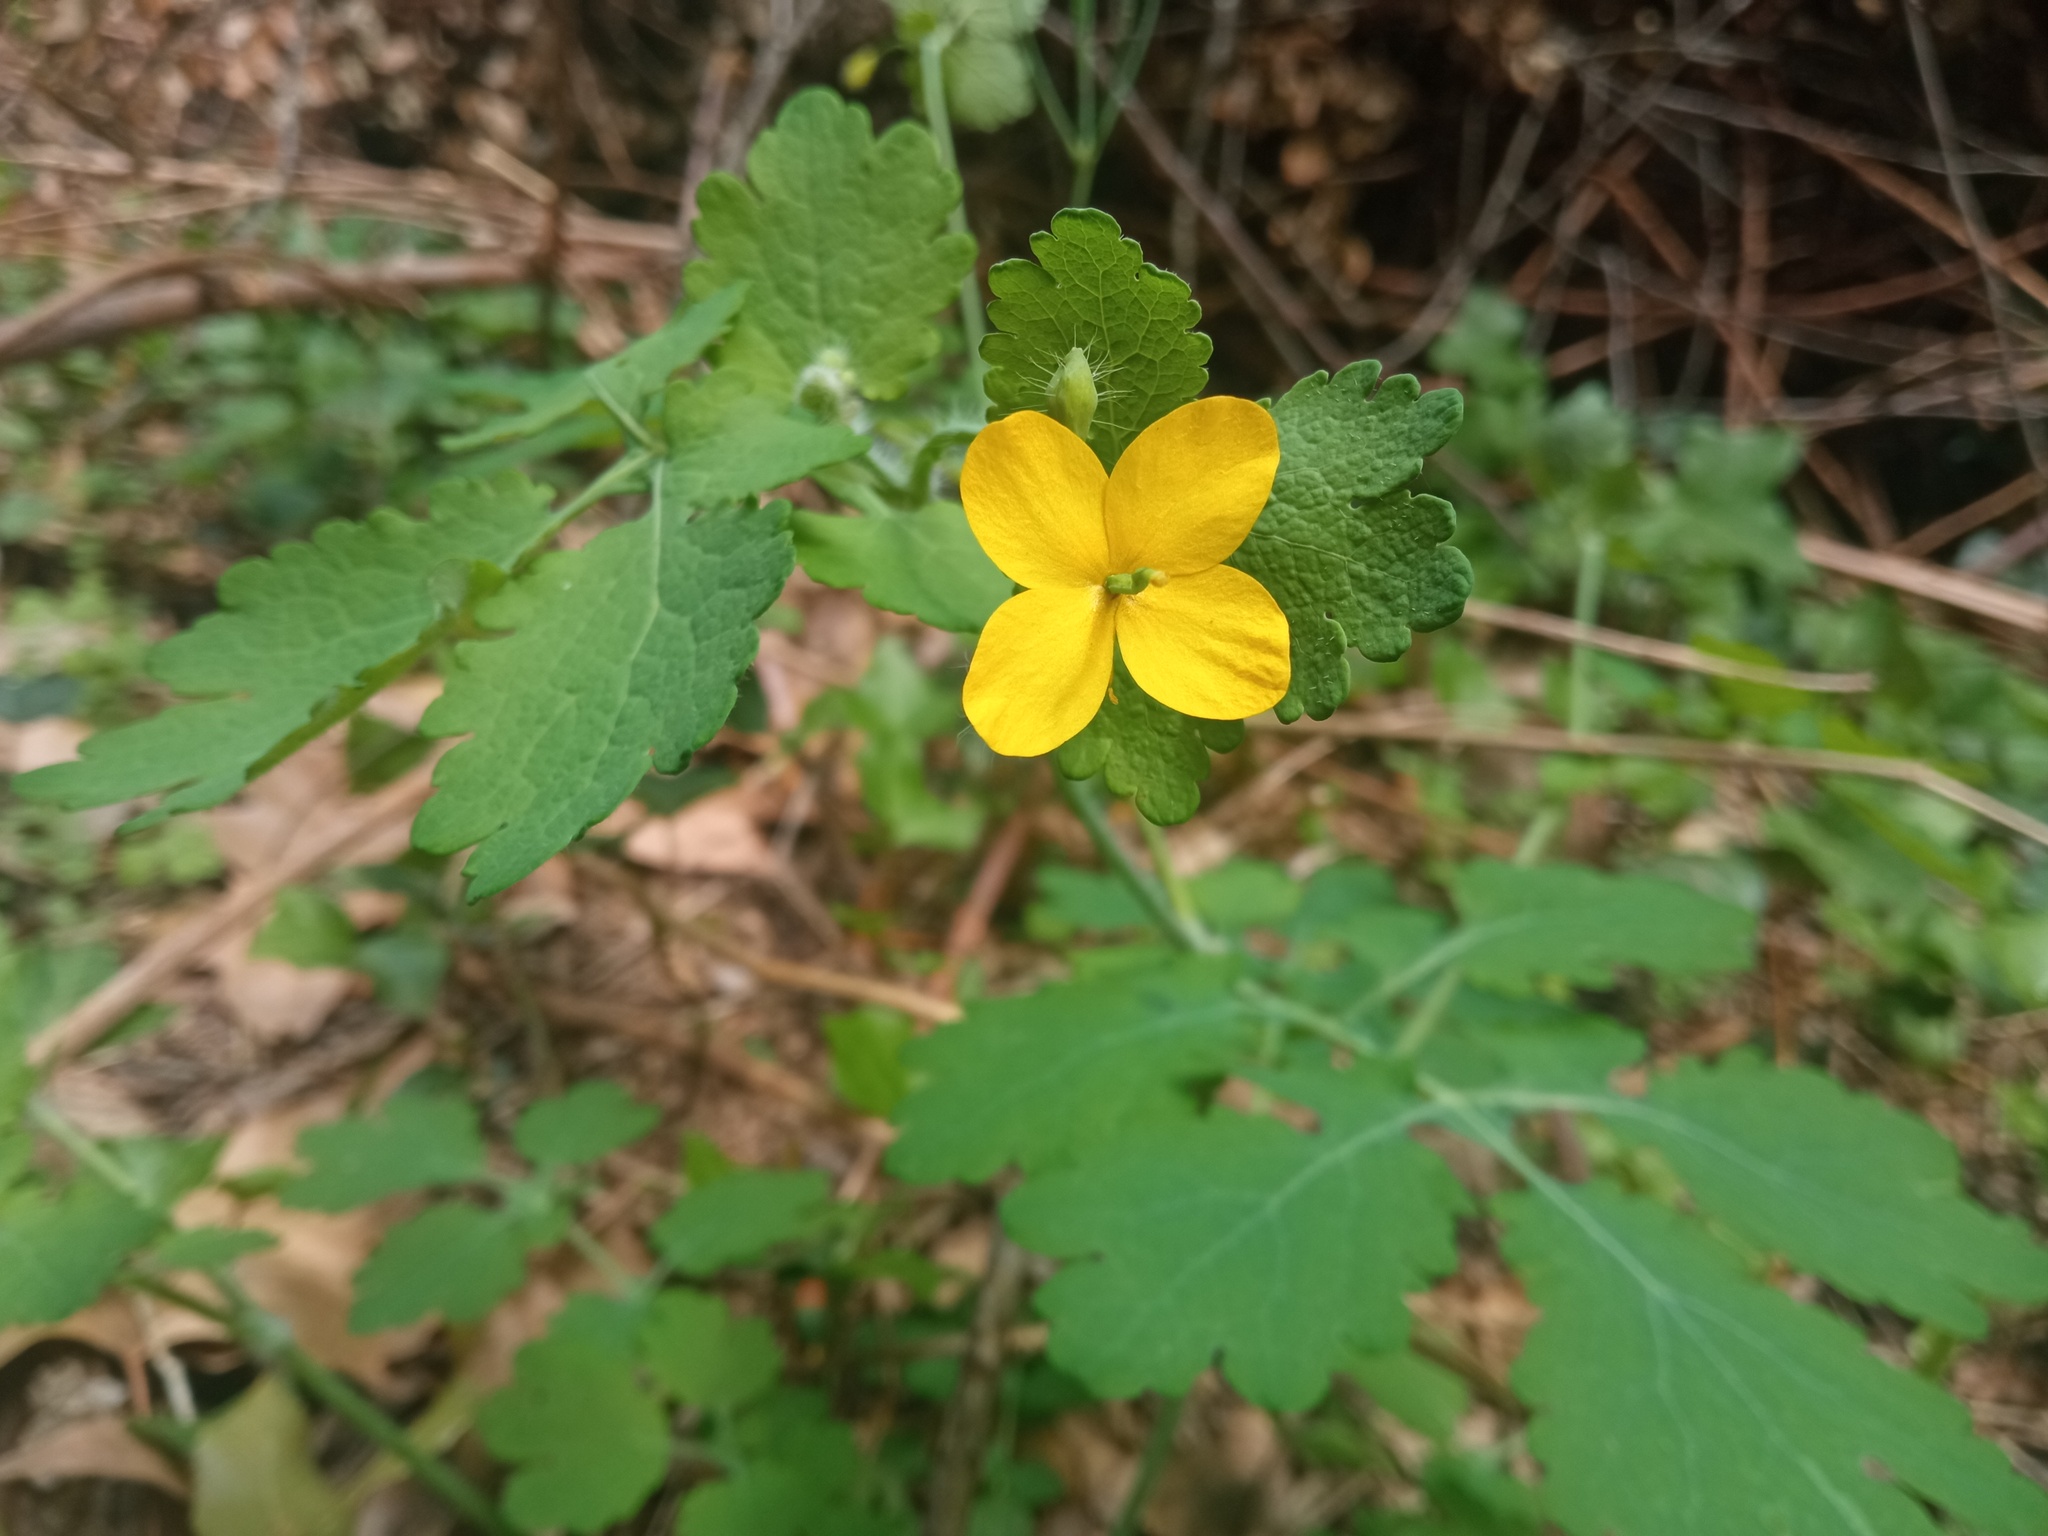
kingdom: Plantae
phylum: Tracheophyta
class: Magnoliopsida
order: Ranunculales
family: Papaveraceae
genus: Chelidonium
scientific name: Chelidonium majus
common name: Greater celandine
